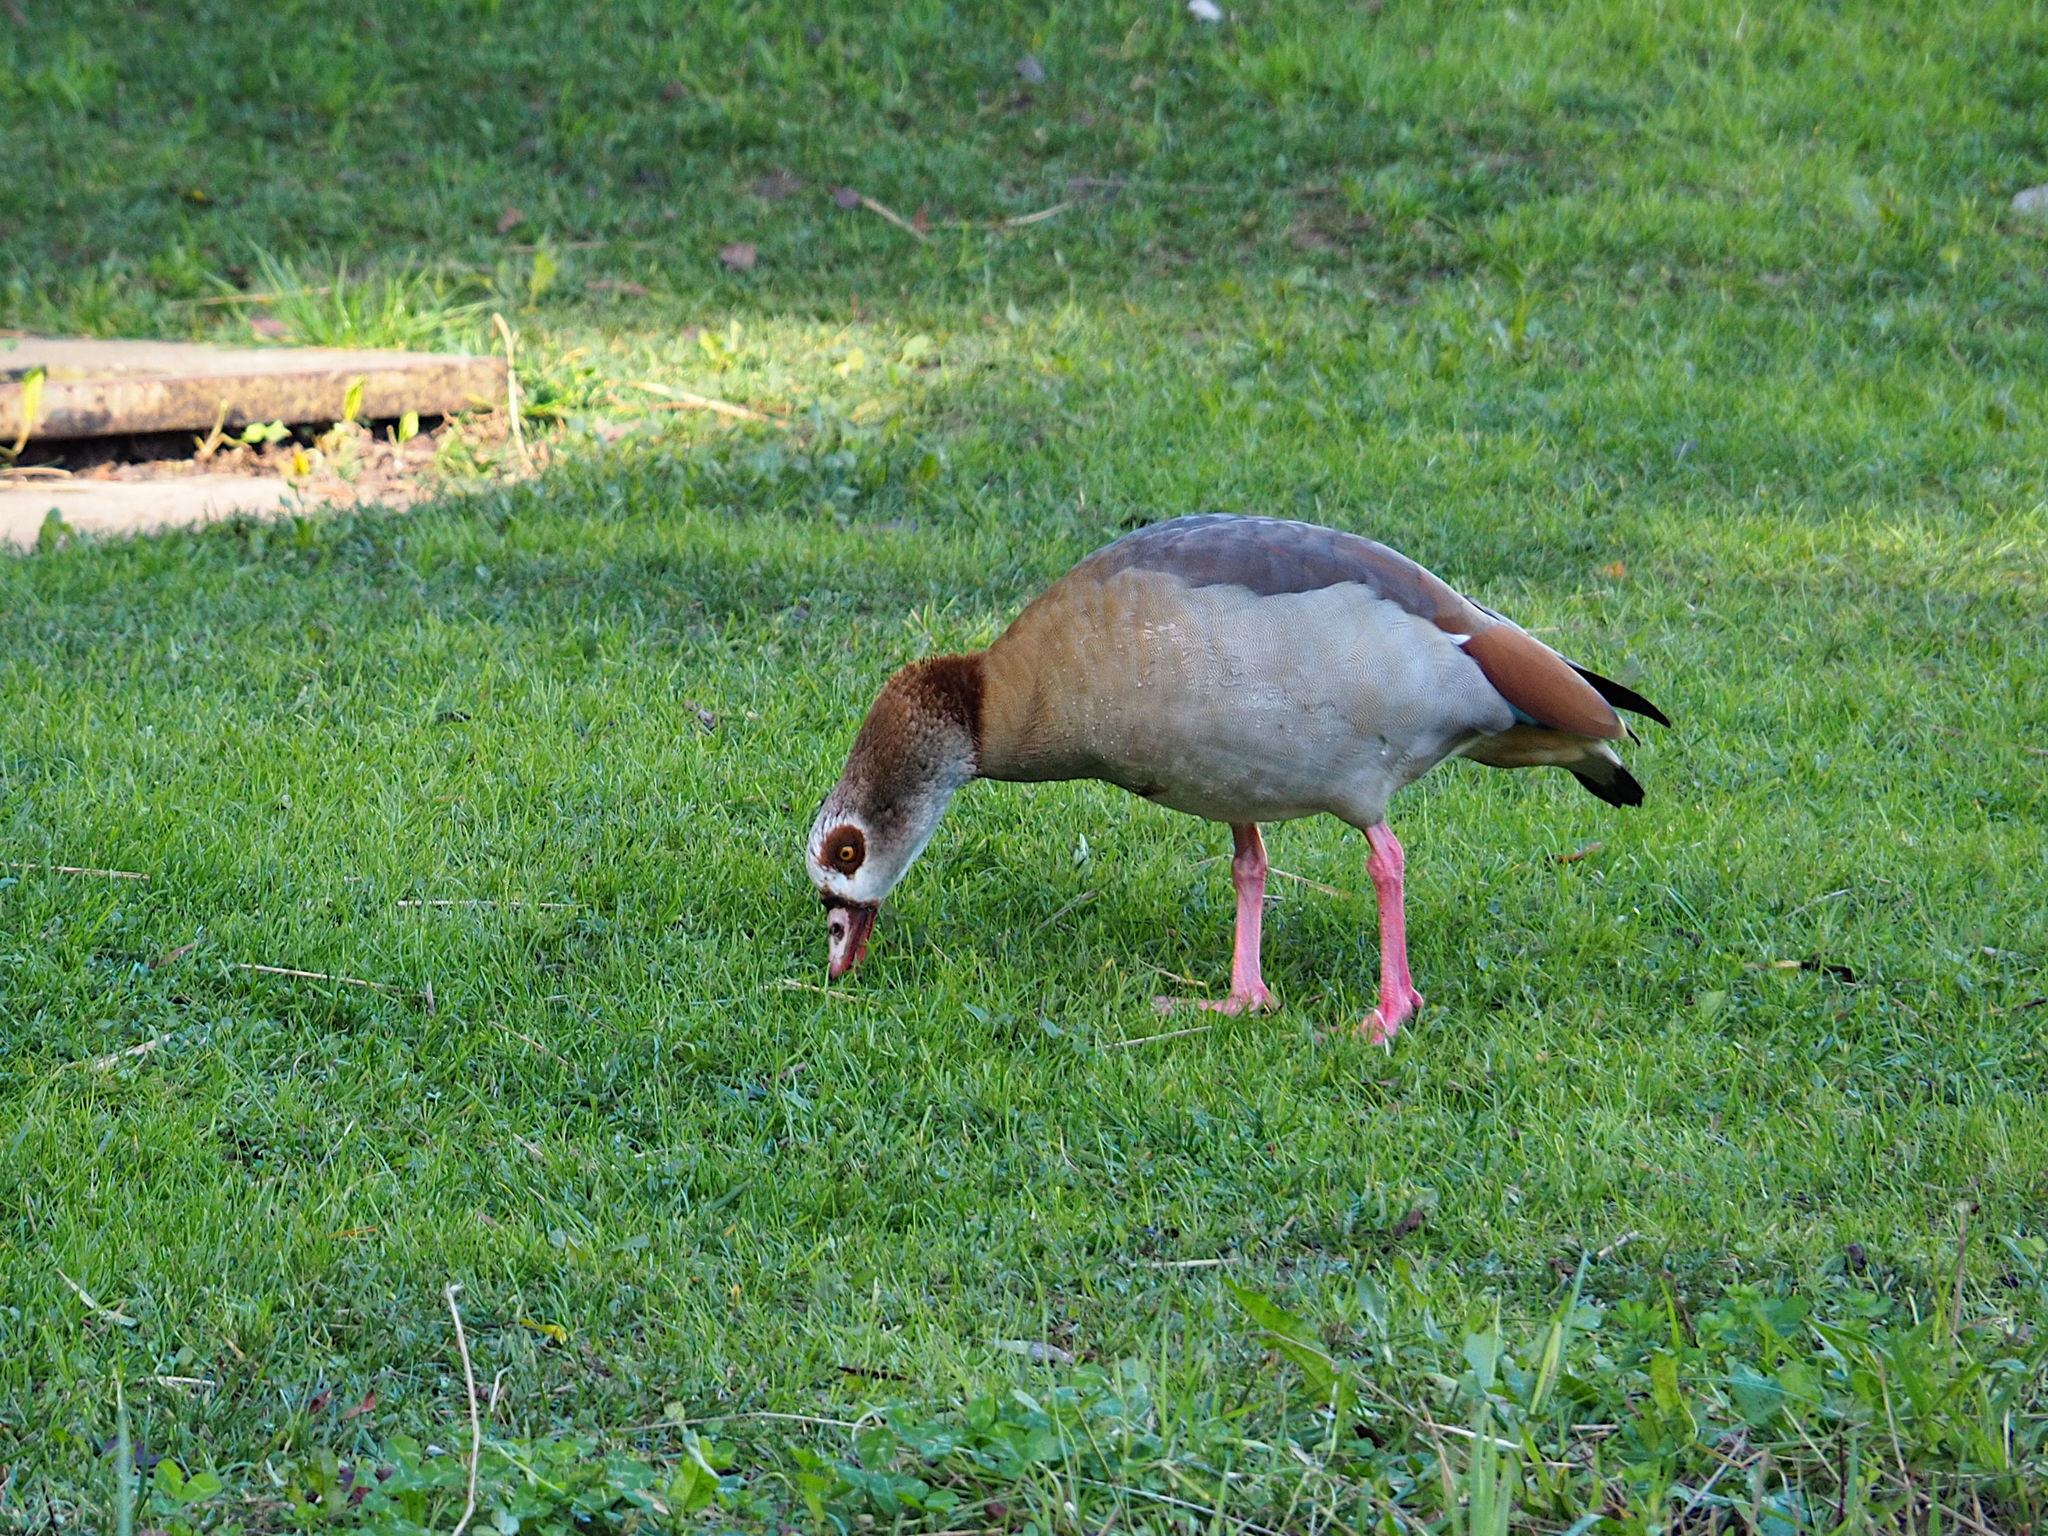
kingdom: Animalia
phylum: Chordata
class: Aves
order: Anseriformes
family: Anatidae
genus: Alopochen
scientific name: Alopochen aegyptiaca
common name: Egyptian goose
